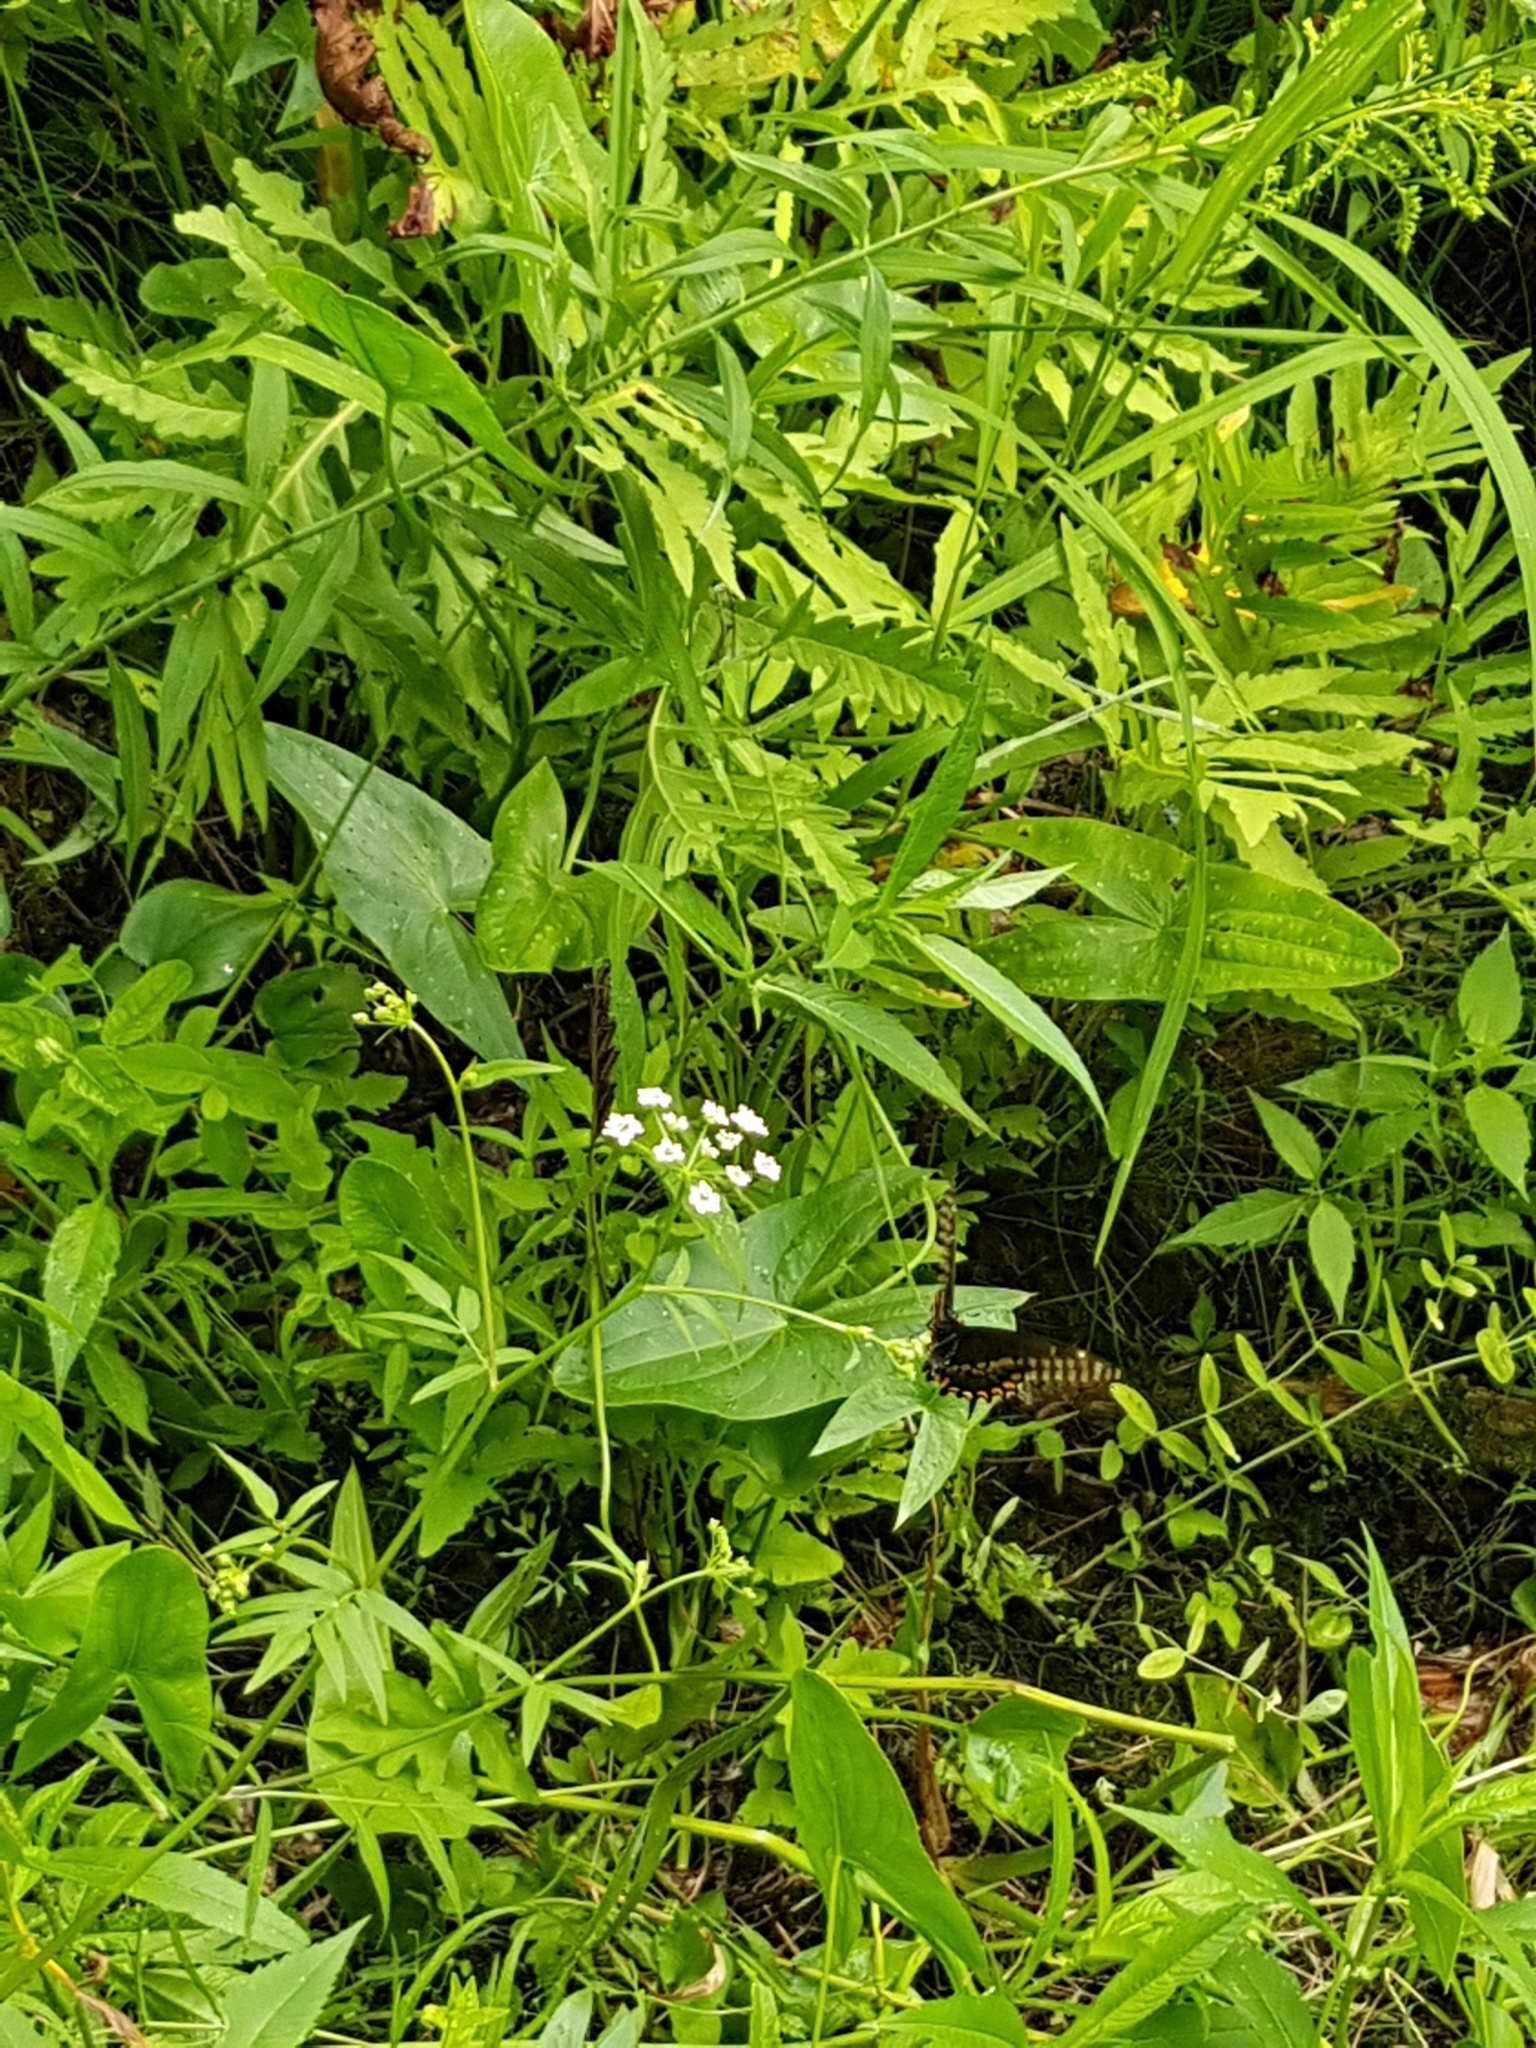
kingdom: Animalia
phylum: Arthropoda
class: Insecta
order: Lepidoptera
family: Papilionidae
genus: Papilio
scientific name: Papilio polyxenes
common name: Black swallowtail
